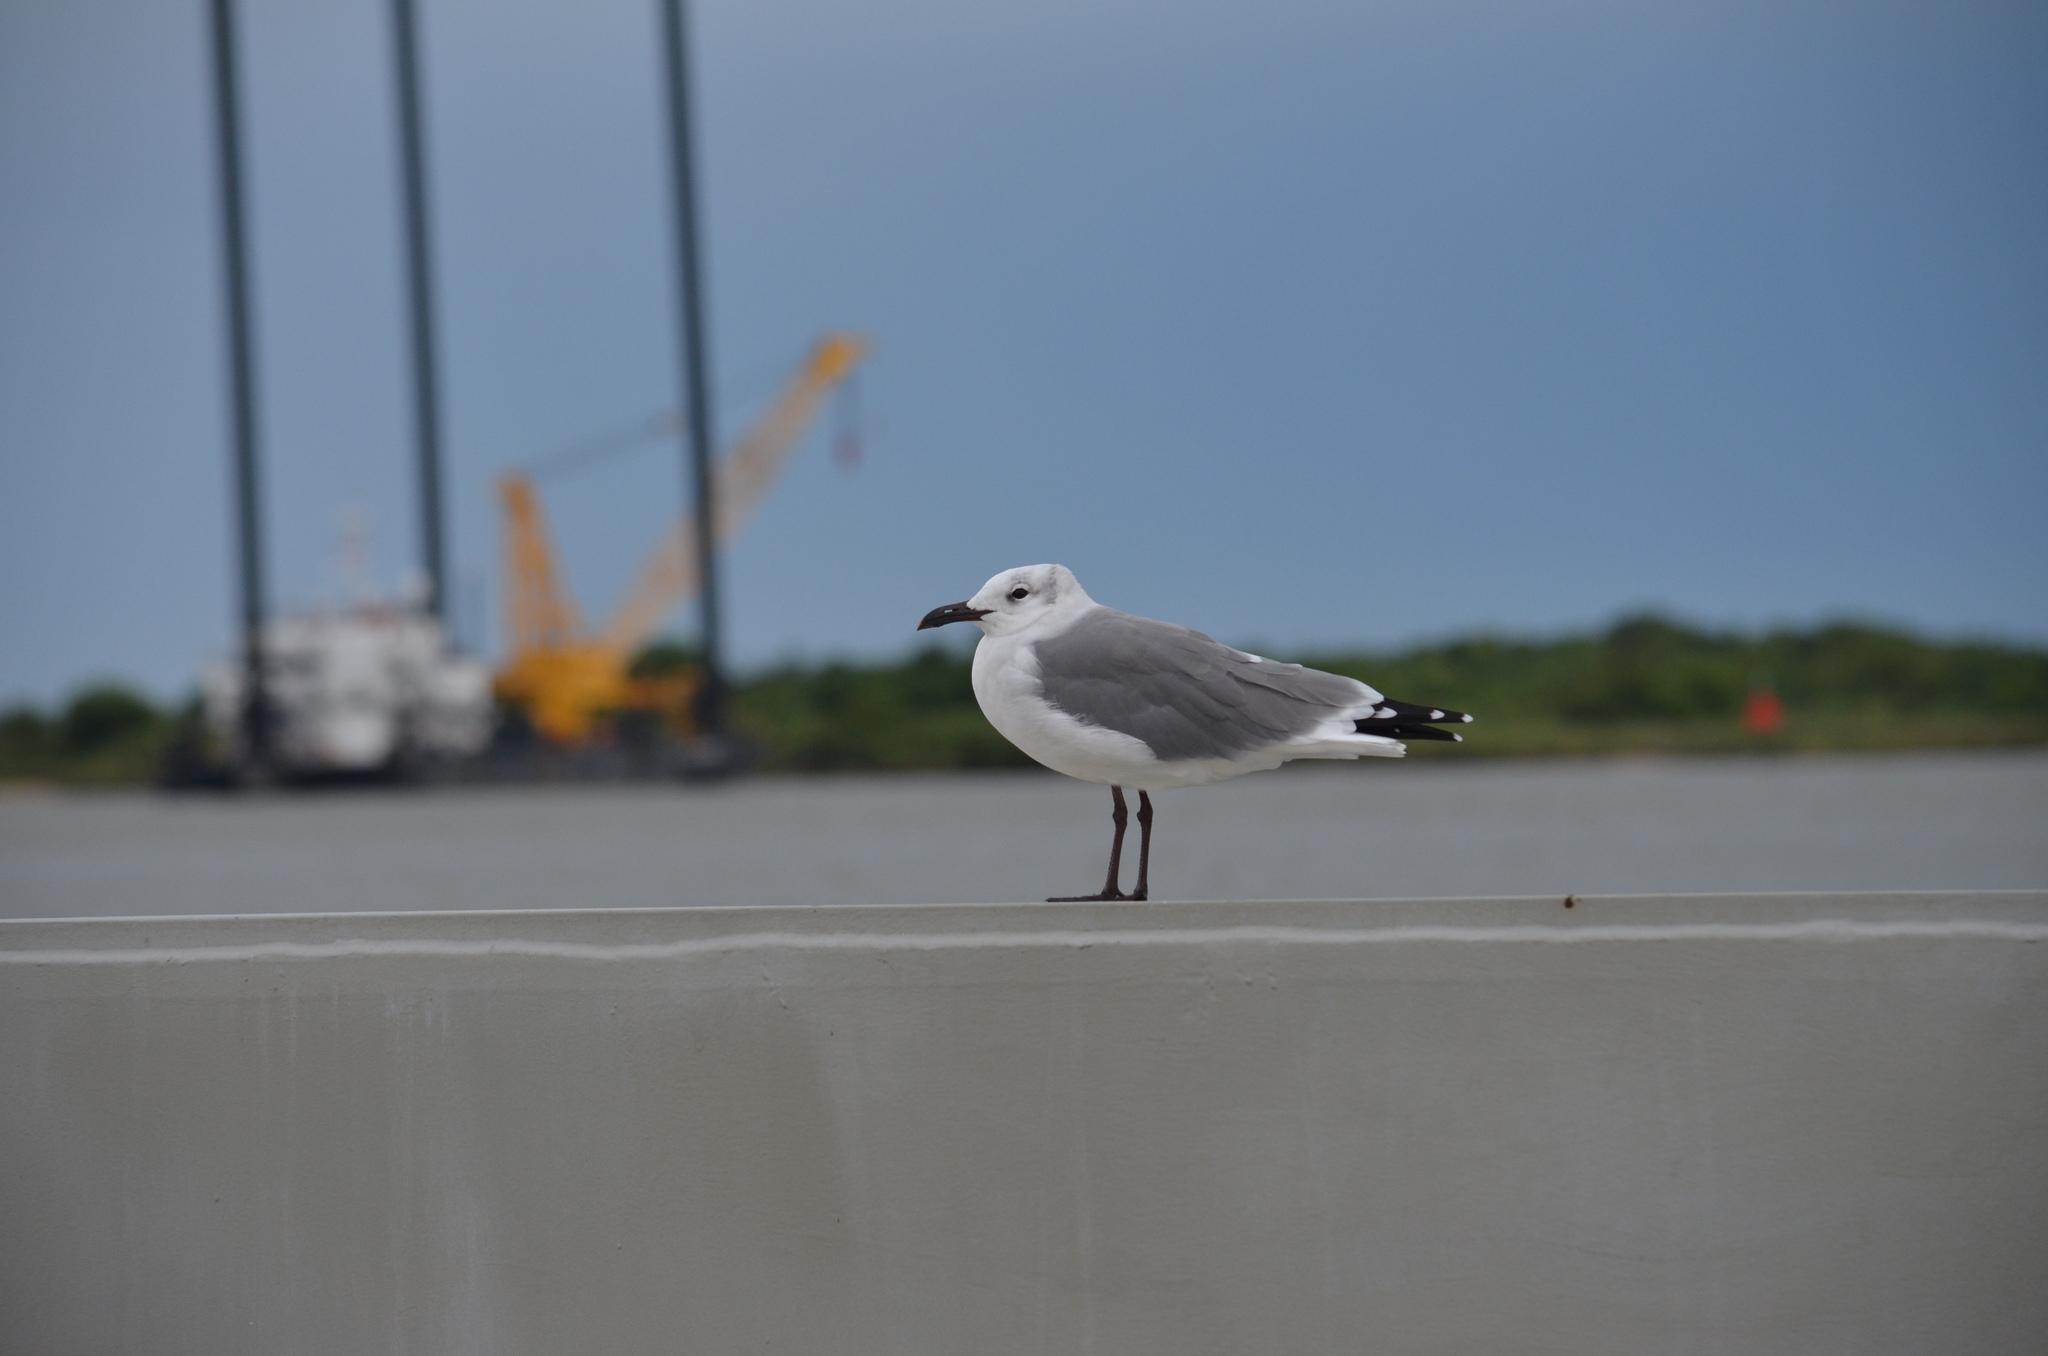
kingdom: Animalia
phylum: Chordata
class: Aves
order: Charadriiformes
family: Laridae
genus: Leucophaeus
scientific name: Leucophaeus atricilla
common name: Laughing gull
